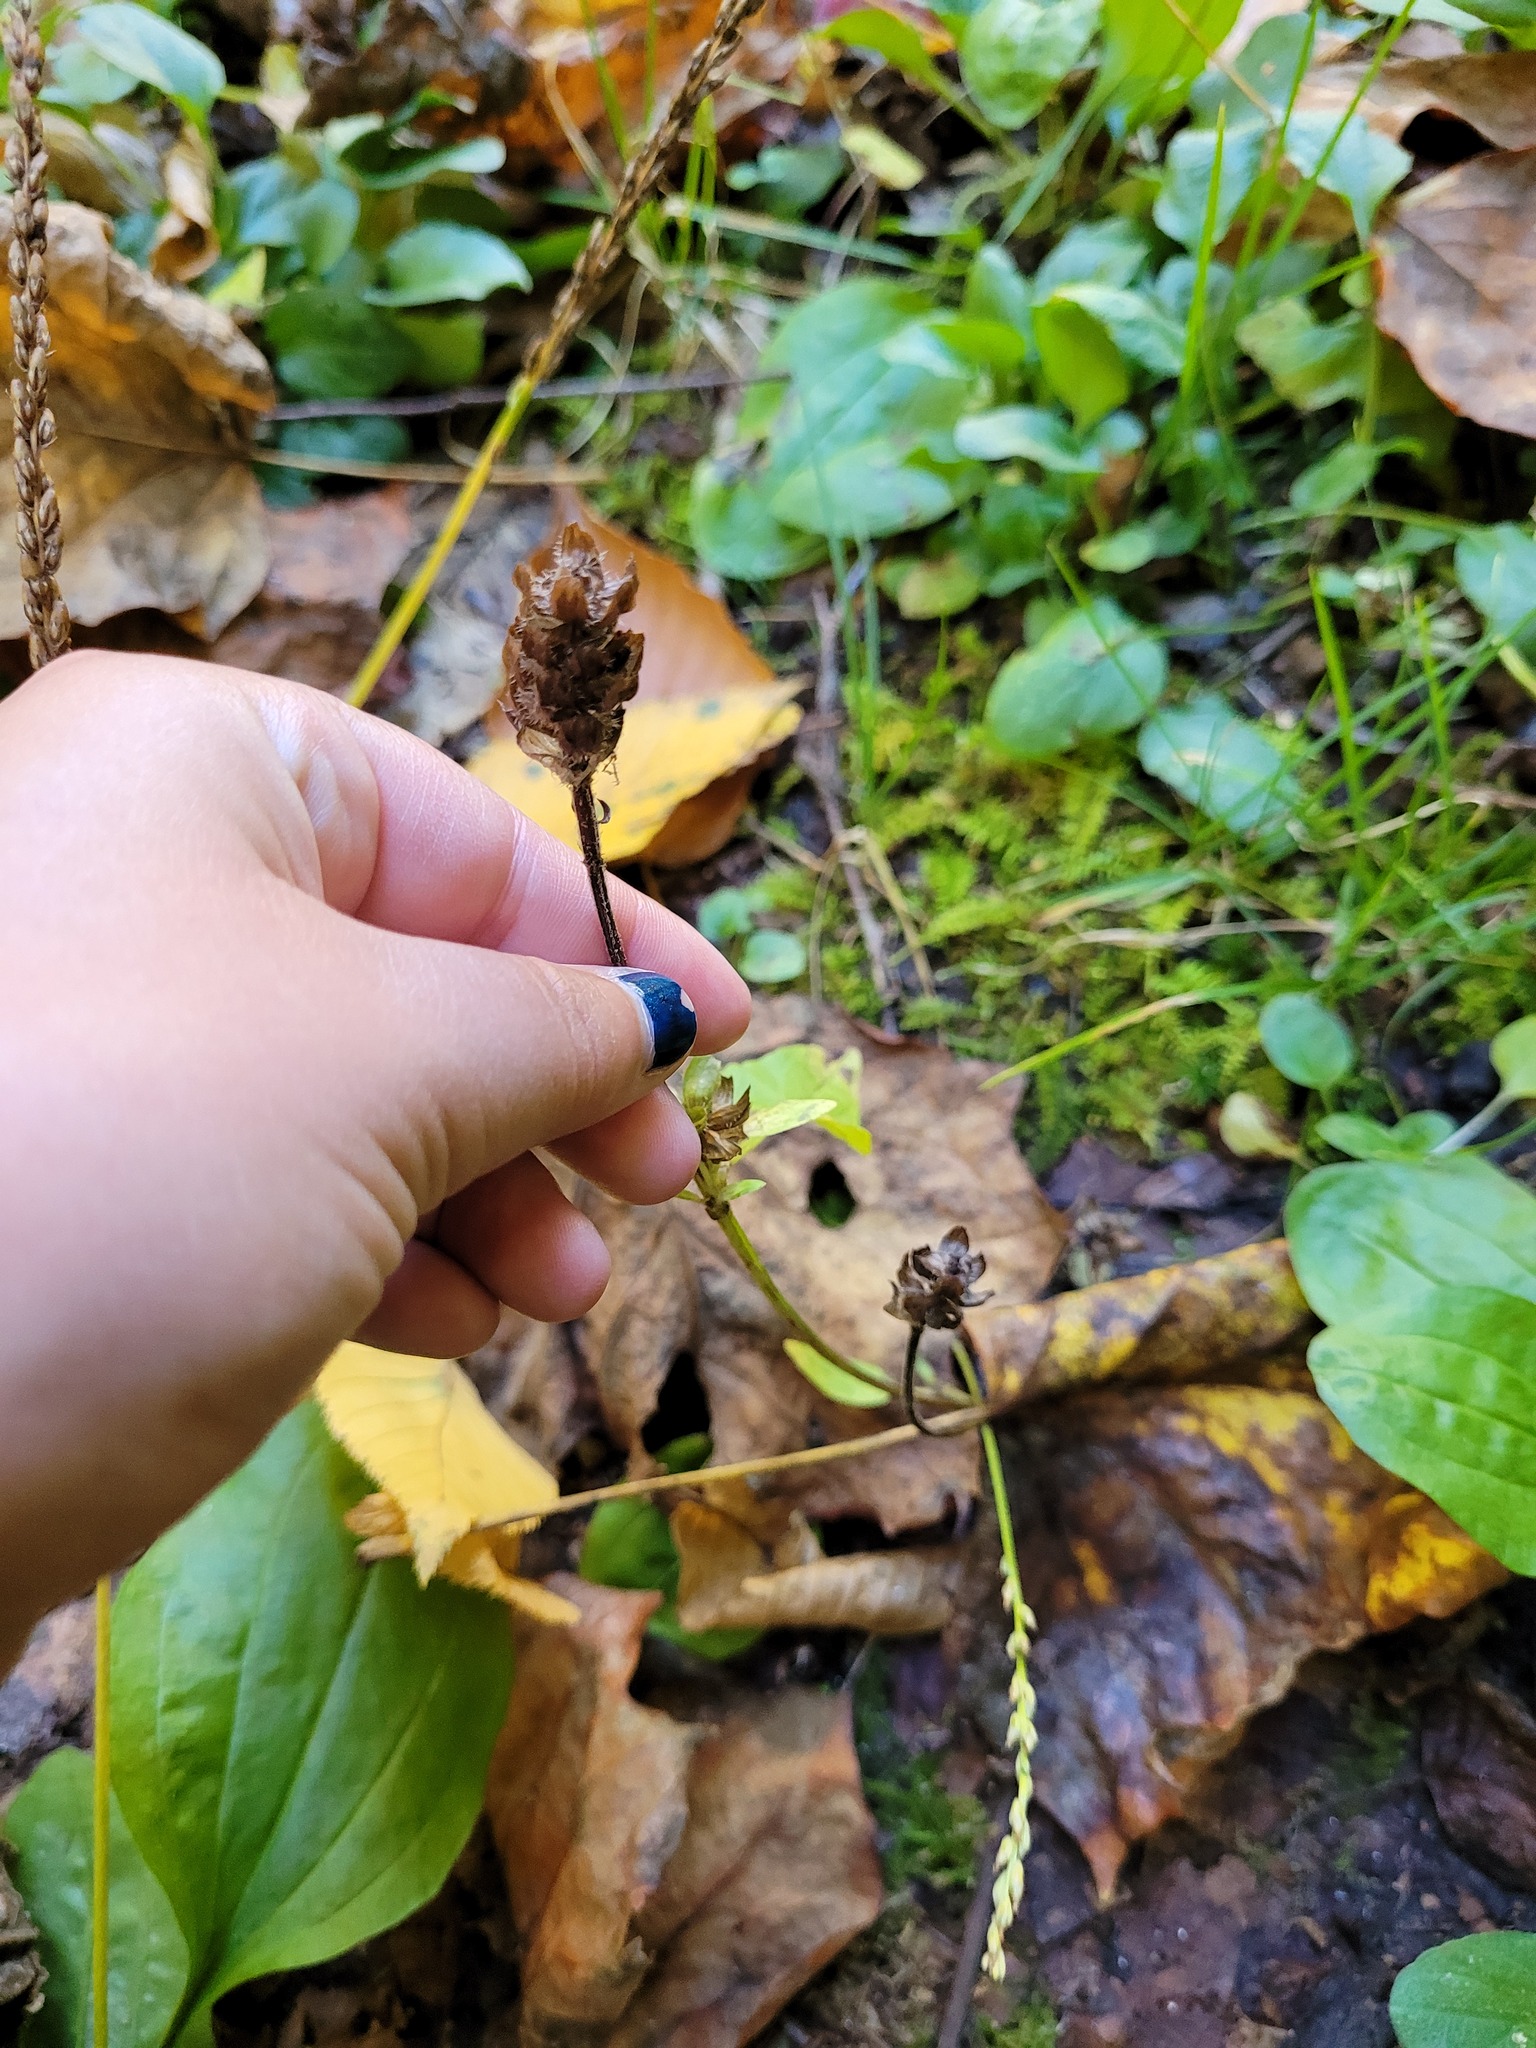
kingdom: Plantae
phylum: Tracheophyta
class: Magnoliopsida
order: Lamiales
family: Lamiaceae
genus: Prunella
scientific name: Prunella vulgaris
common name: Heal-all
